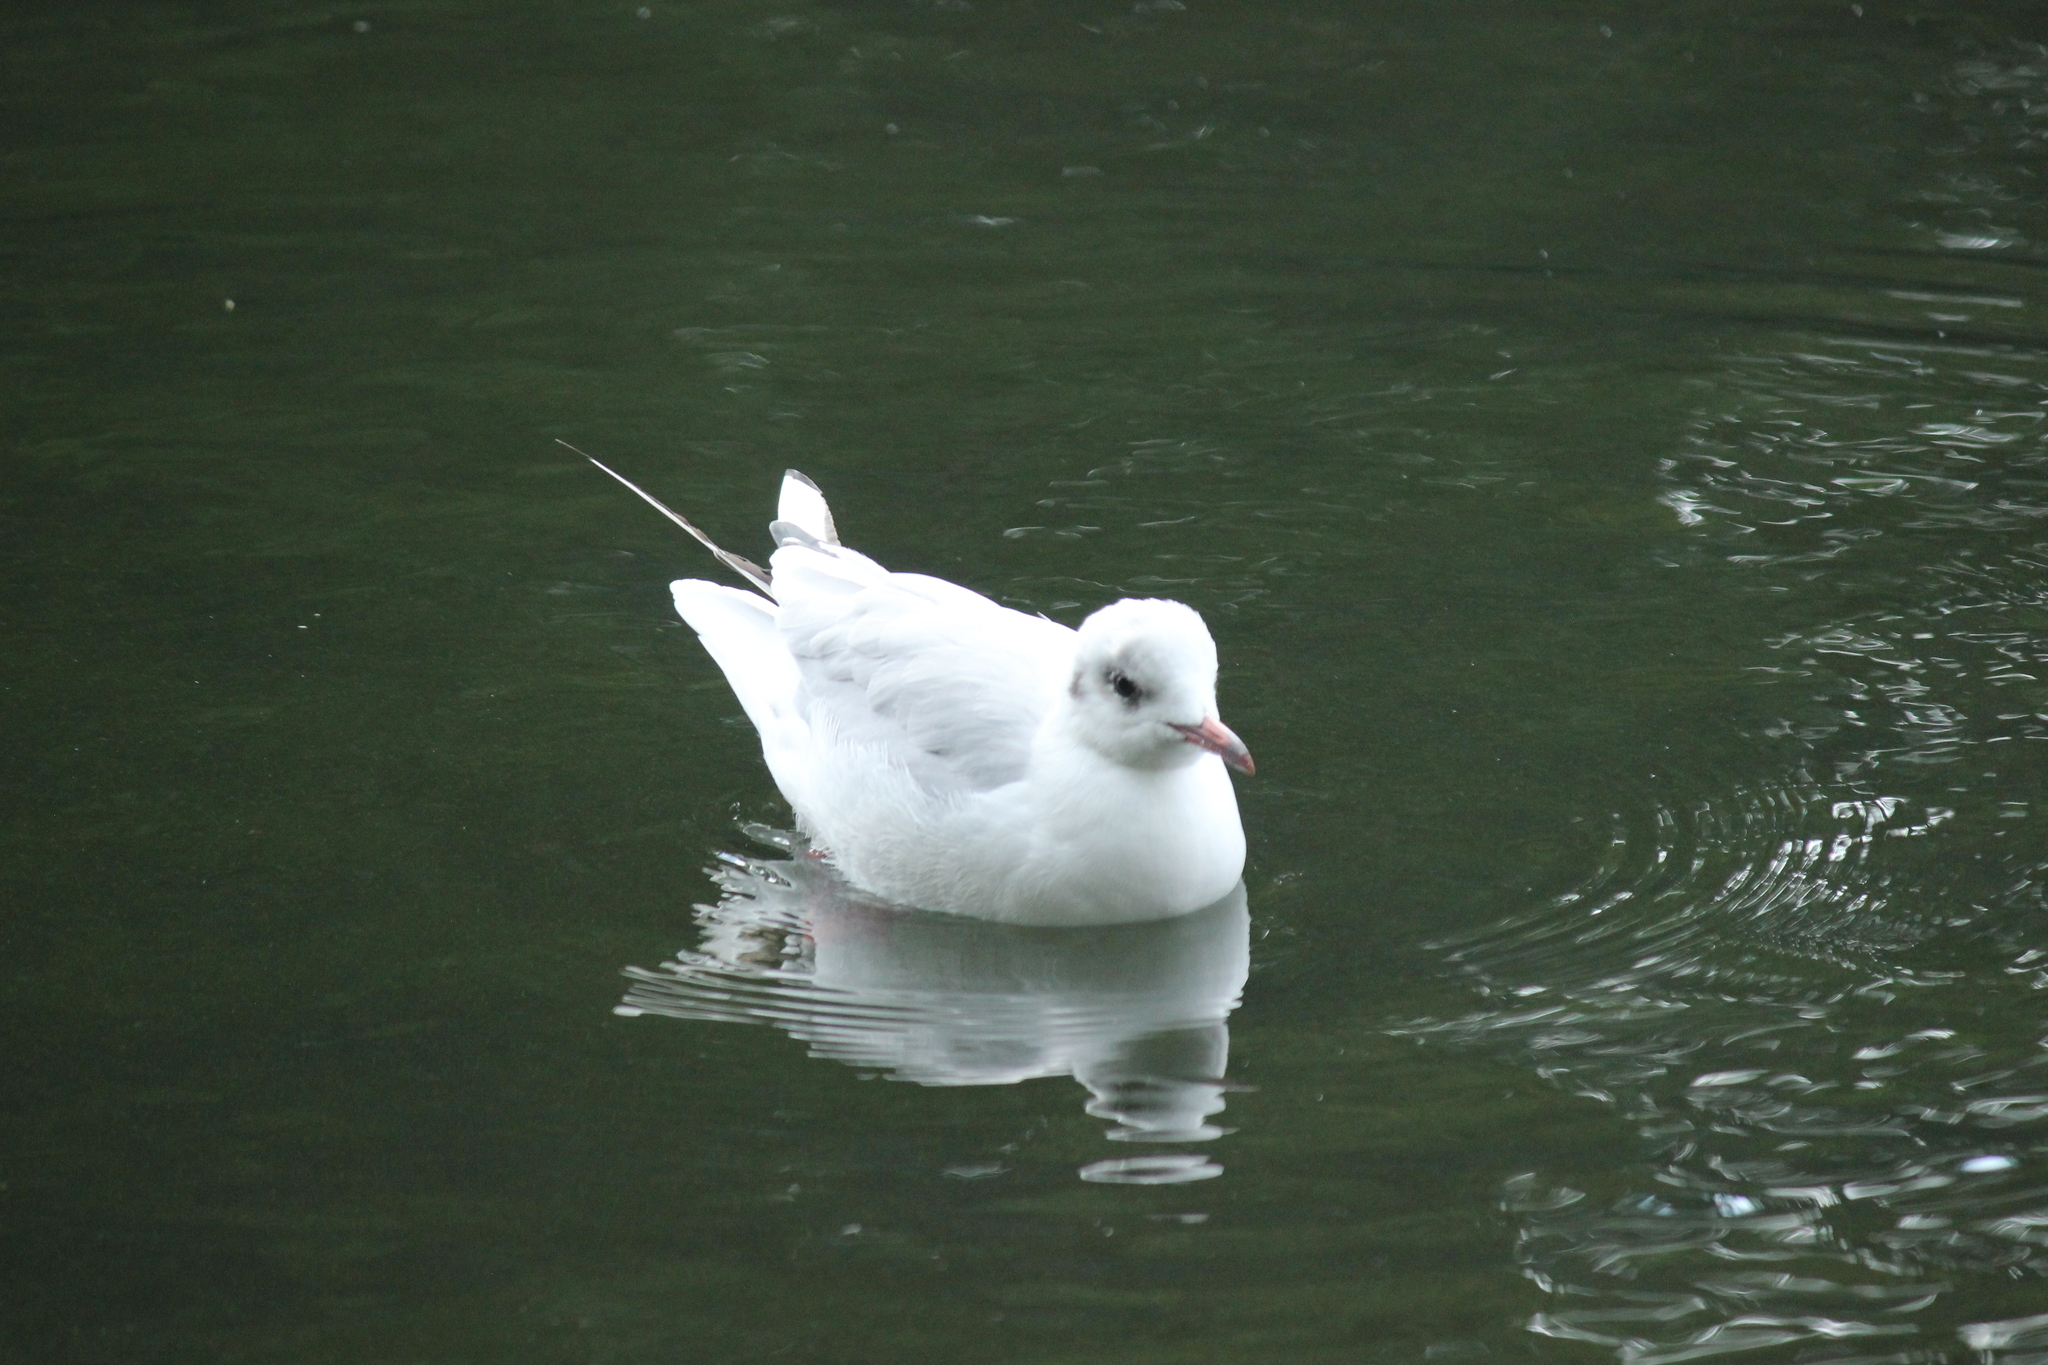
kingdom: Animalia
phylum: Chordata
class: Aves
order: Charadriiformes
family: Laridae
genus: Chroicocephalus
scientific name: Chroicocephalus ridibundus
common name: Black-headed gull
